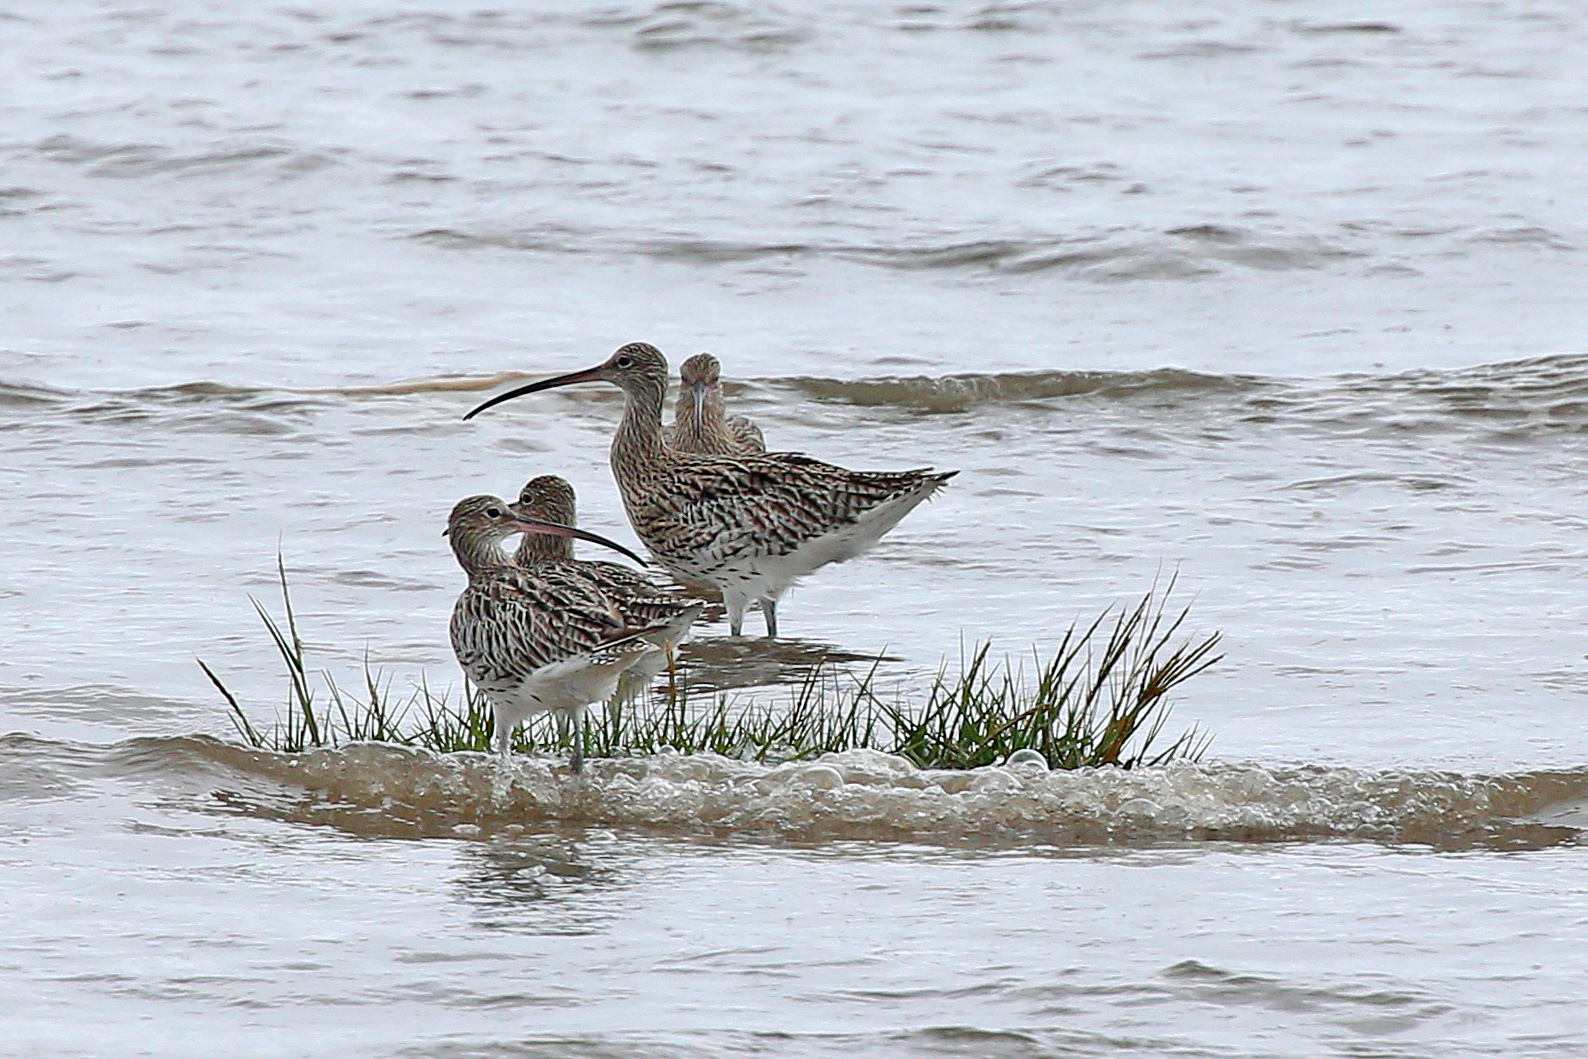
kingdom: Animalia
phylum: Chordata
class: Aves
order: Charadriiformes
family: Scolopacidae
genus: Numenius
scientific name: Numenius arquata
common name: Eurasian curlew
